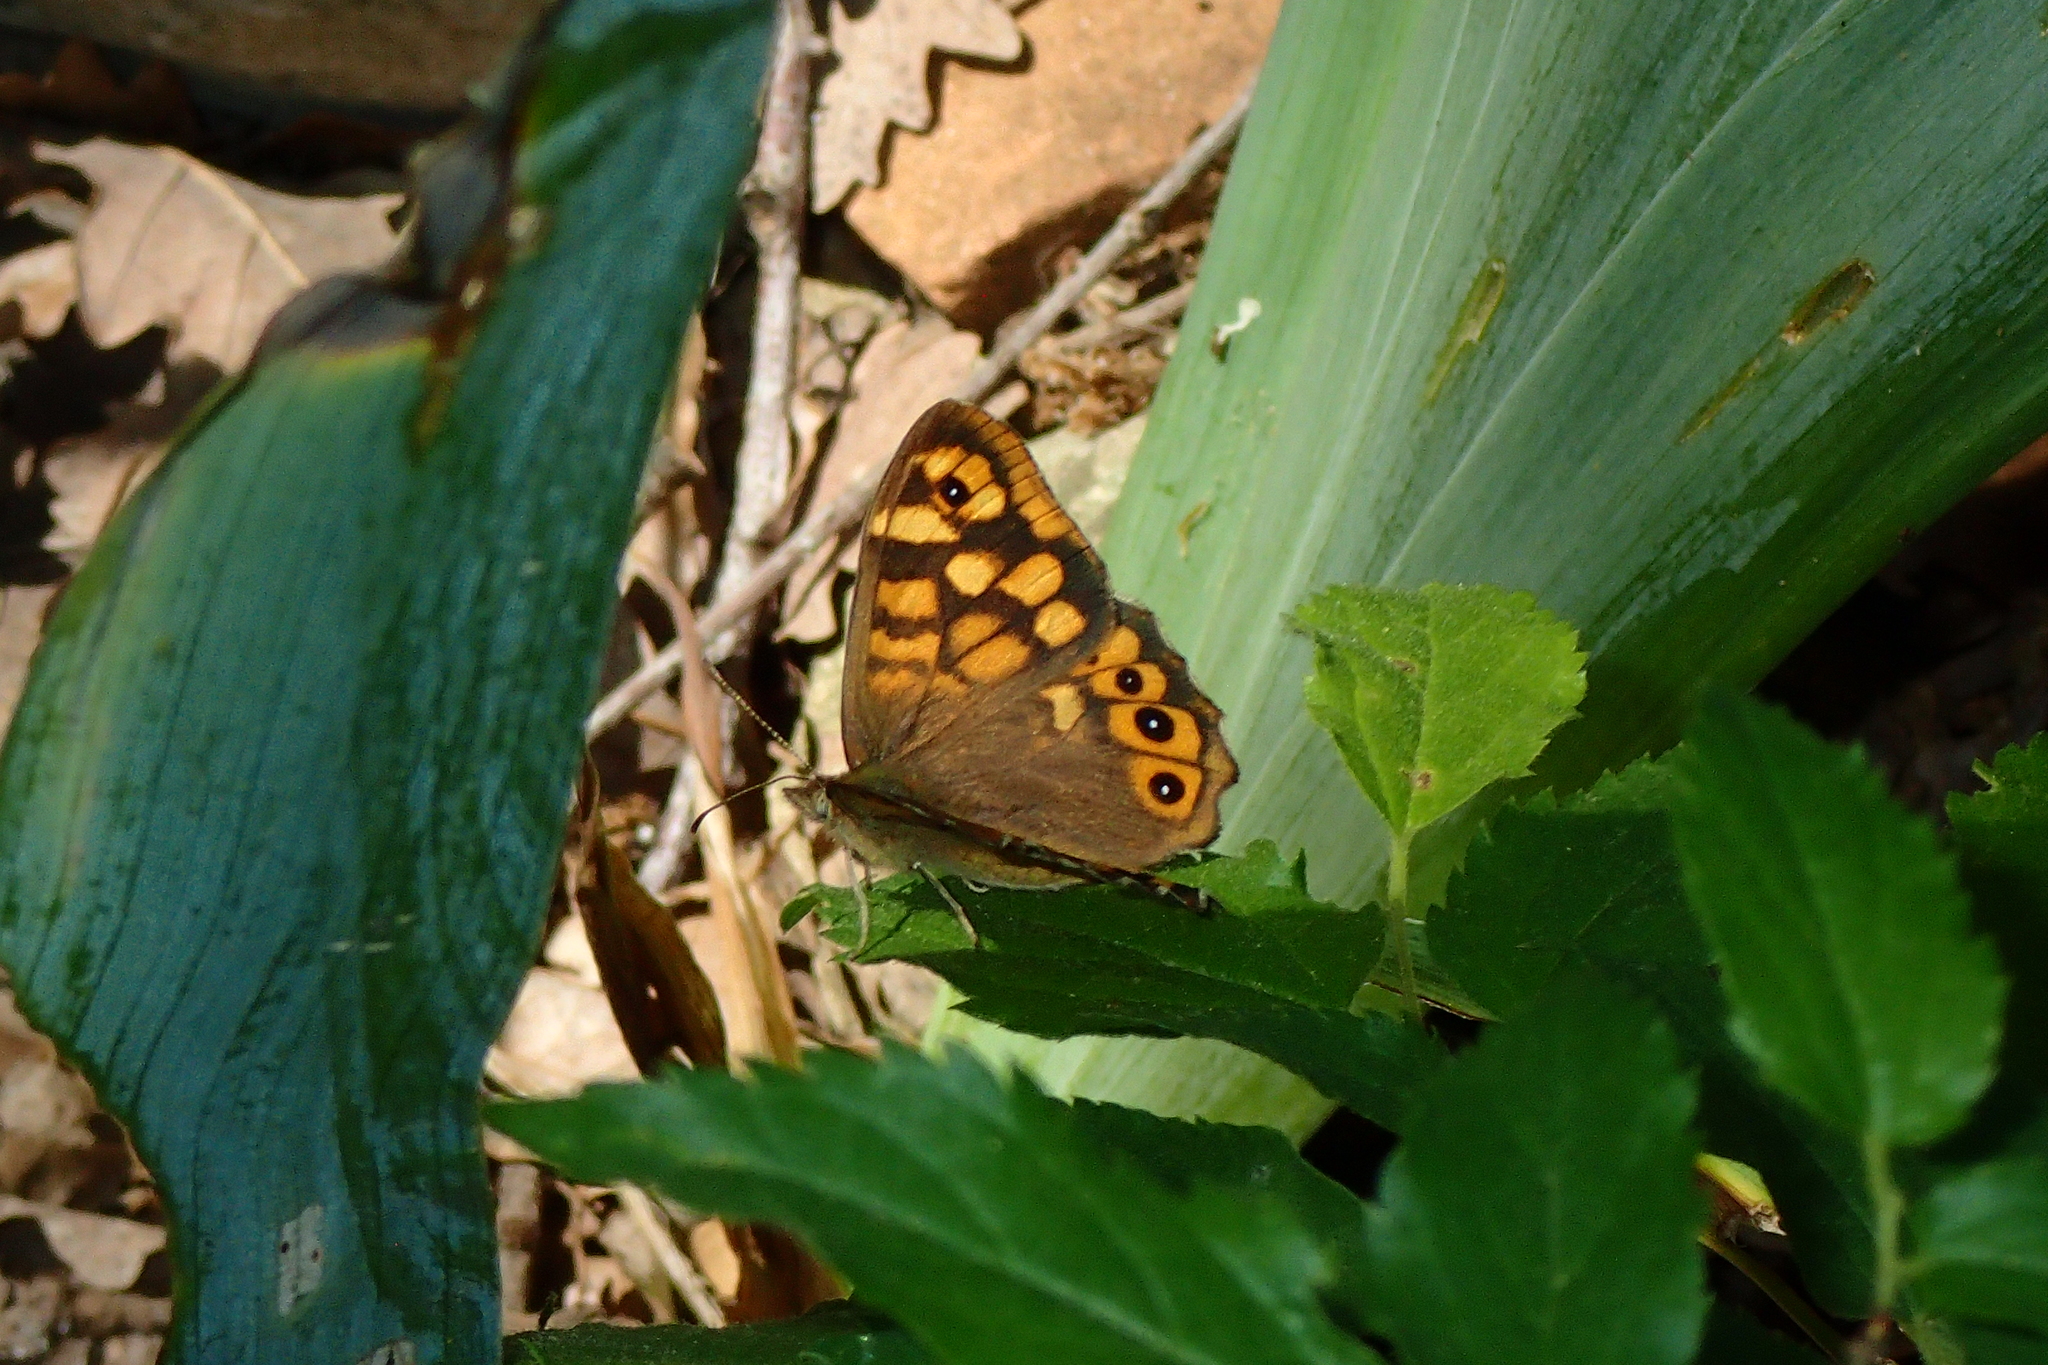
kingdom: Animalia
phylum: Arthropoda
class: Insecta
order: Lepidoptera
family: Nymphalidae
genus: Pararge
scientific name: Pararge aegeria
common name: Speckled wood
